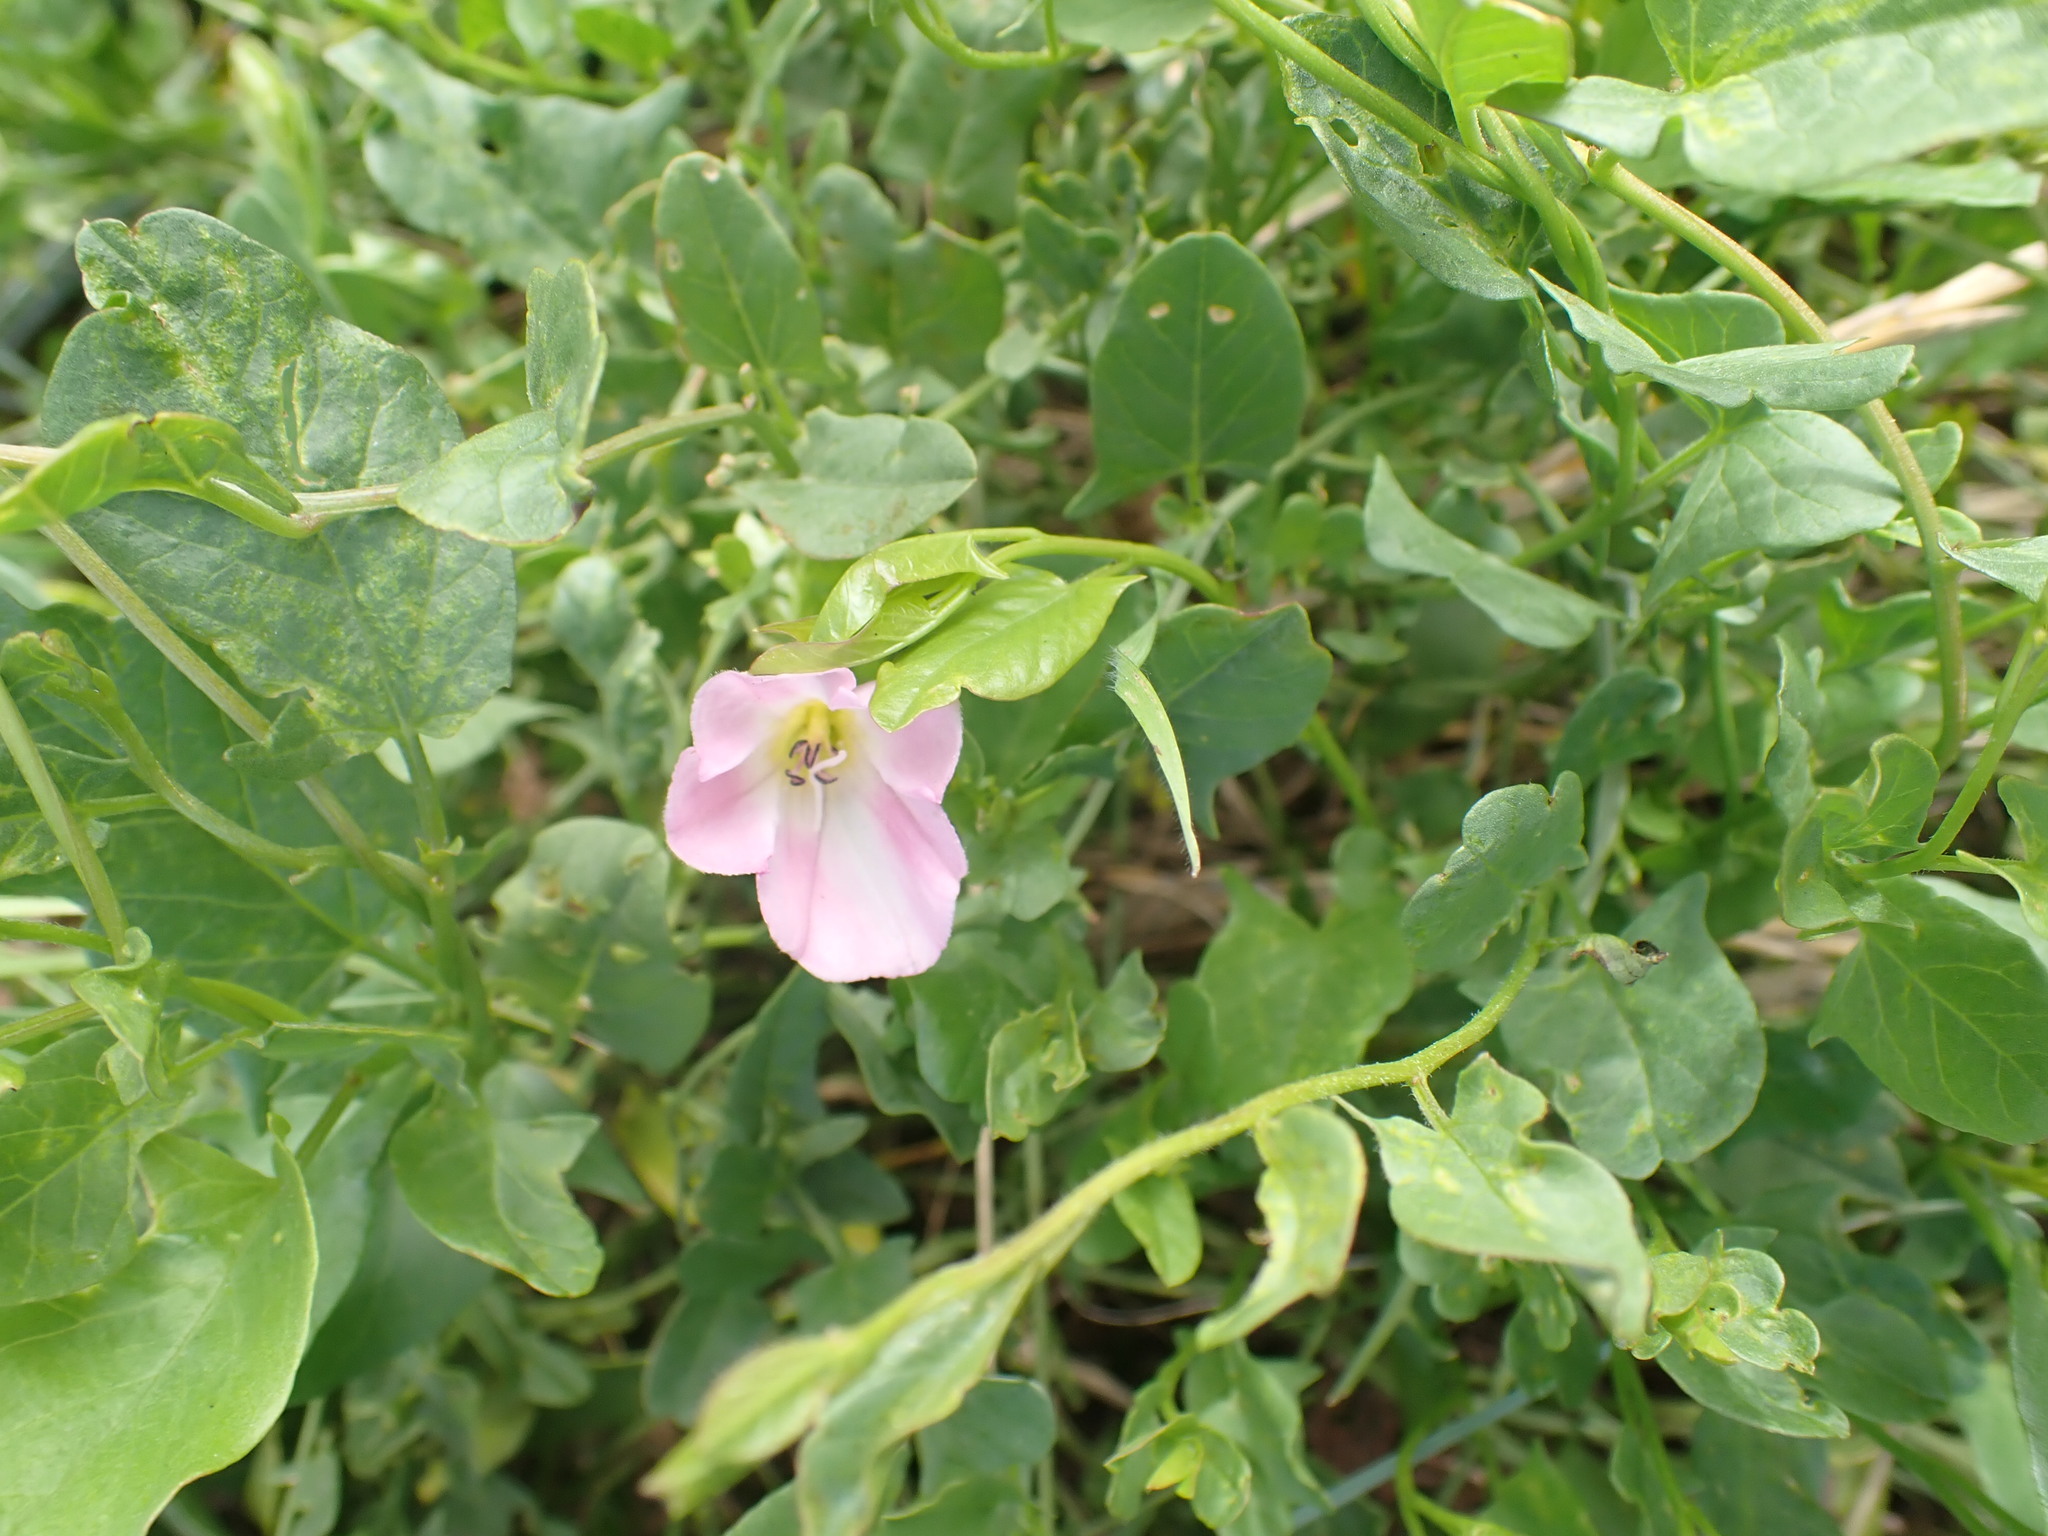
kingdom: Plantae
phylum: Tracheophyta
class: Magnoliopsida
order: Solanales
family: Convolvulaceae
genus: Convolvulus
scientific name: Convolvulus arvensis
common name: Field bindweed
